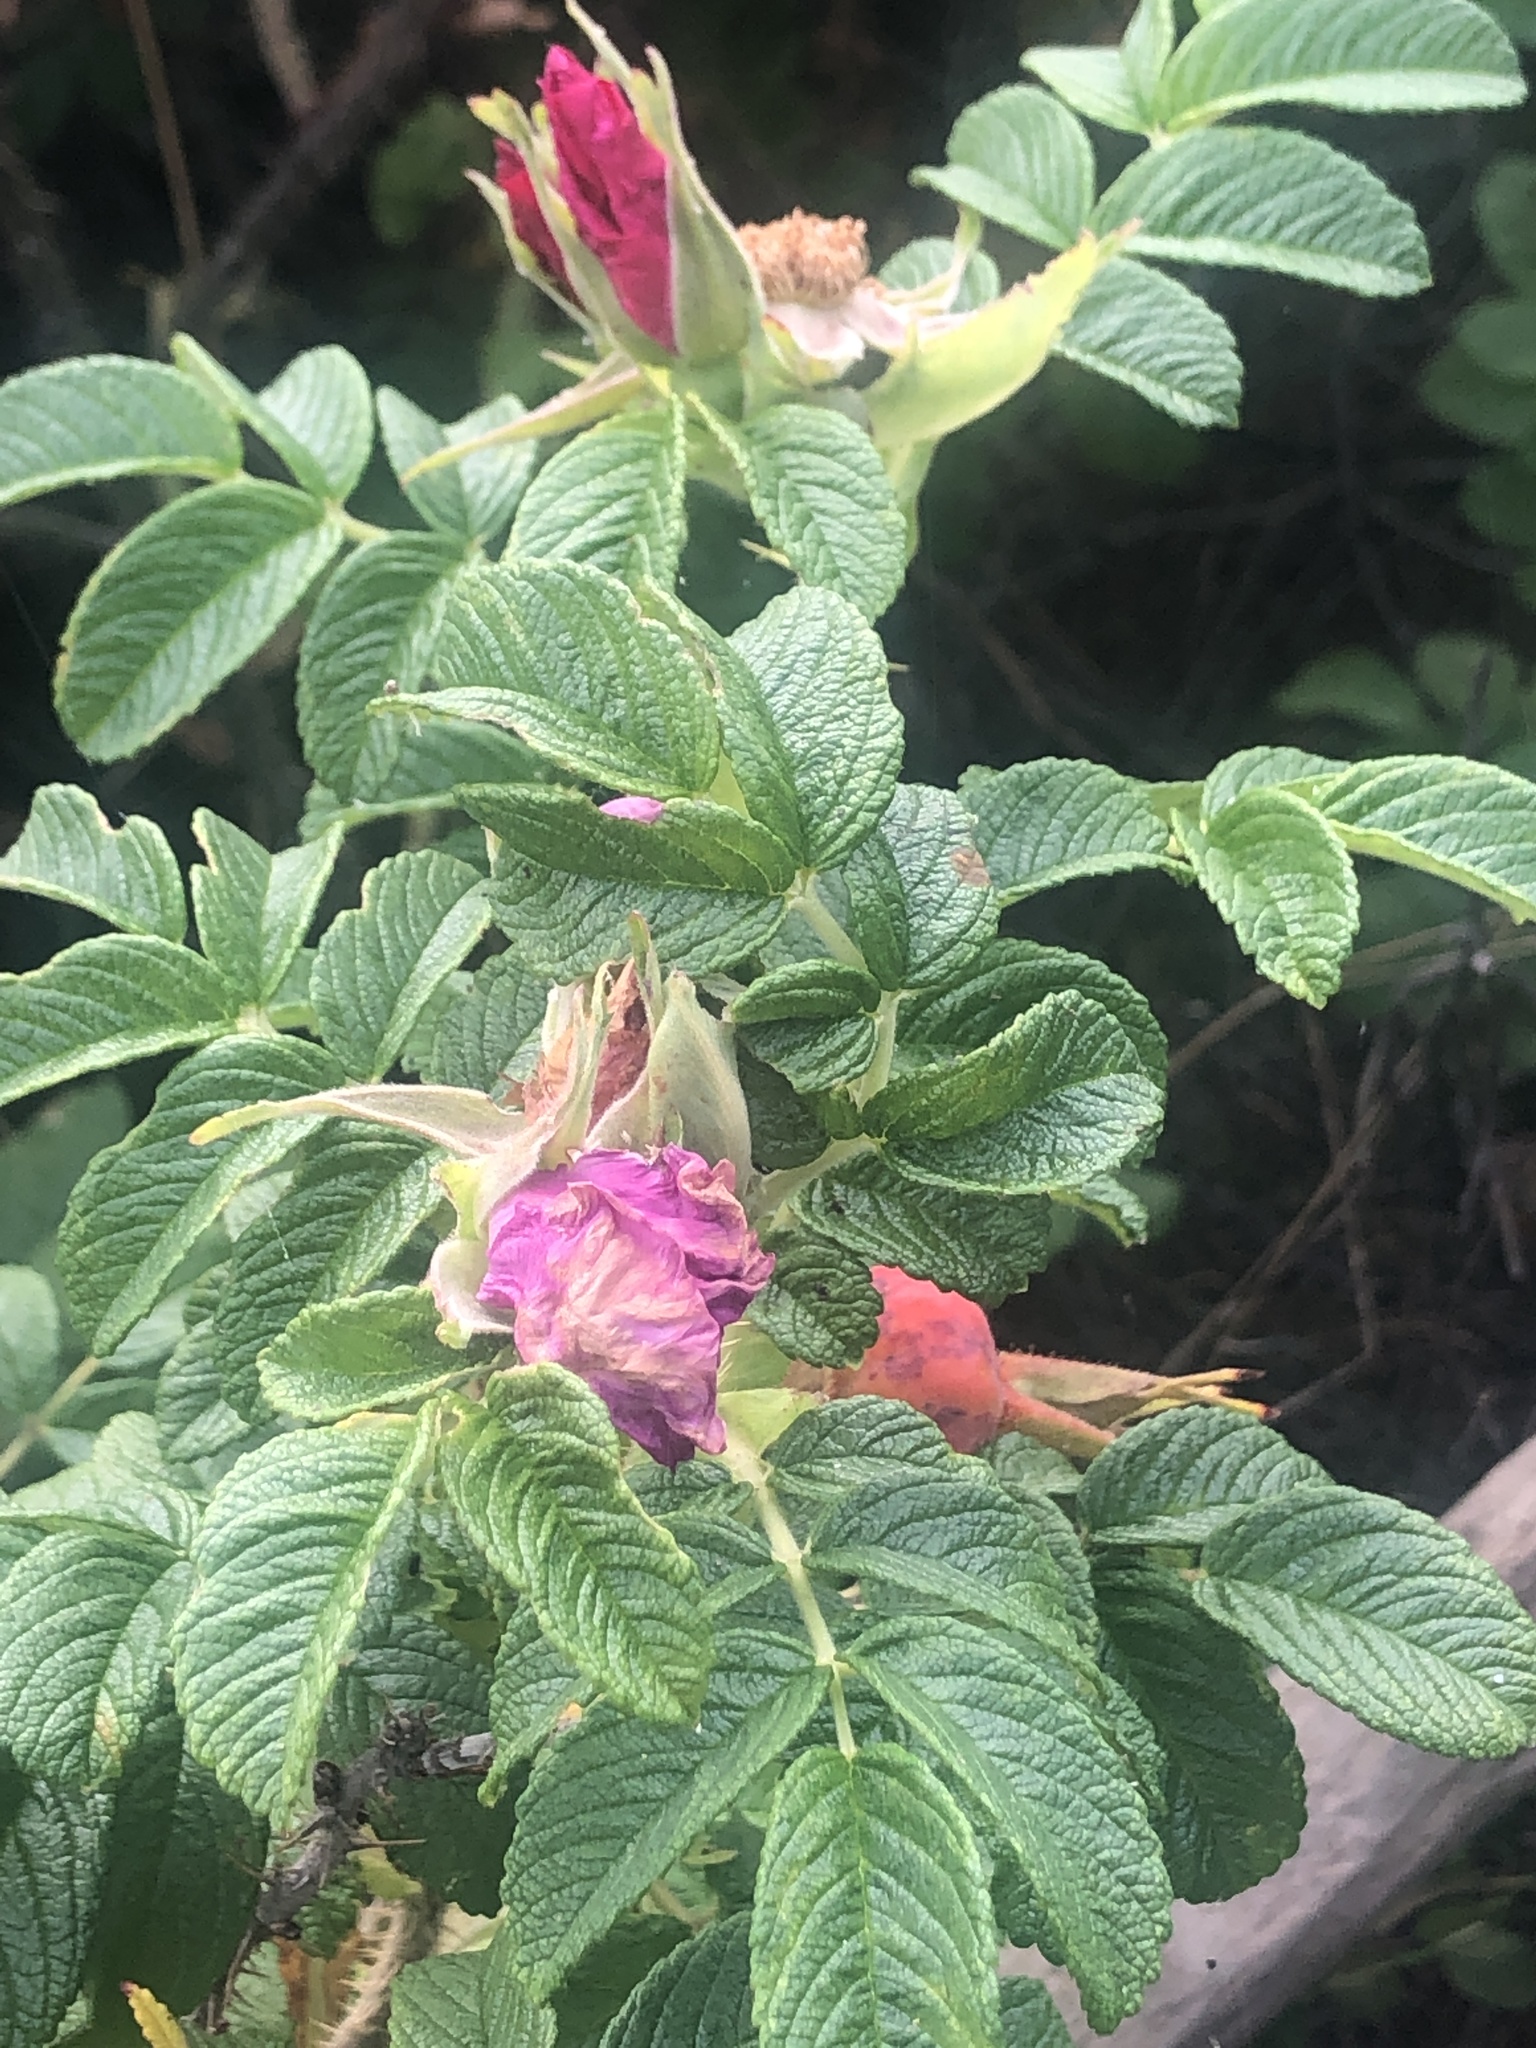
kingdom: Plantae
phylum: Tracheophyta
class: Magnoliopsida
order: Rosales
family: Rosaceae
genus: Rosa
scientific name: Rosa rugosa
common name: Japanese rose
